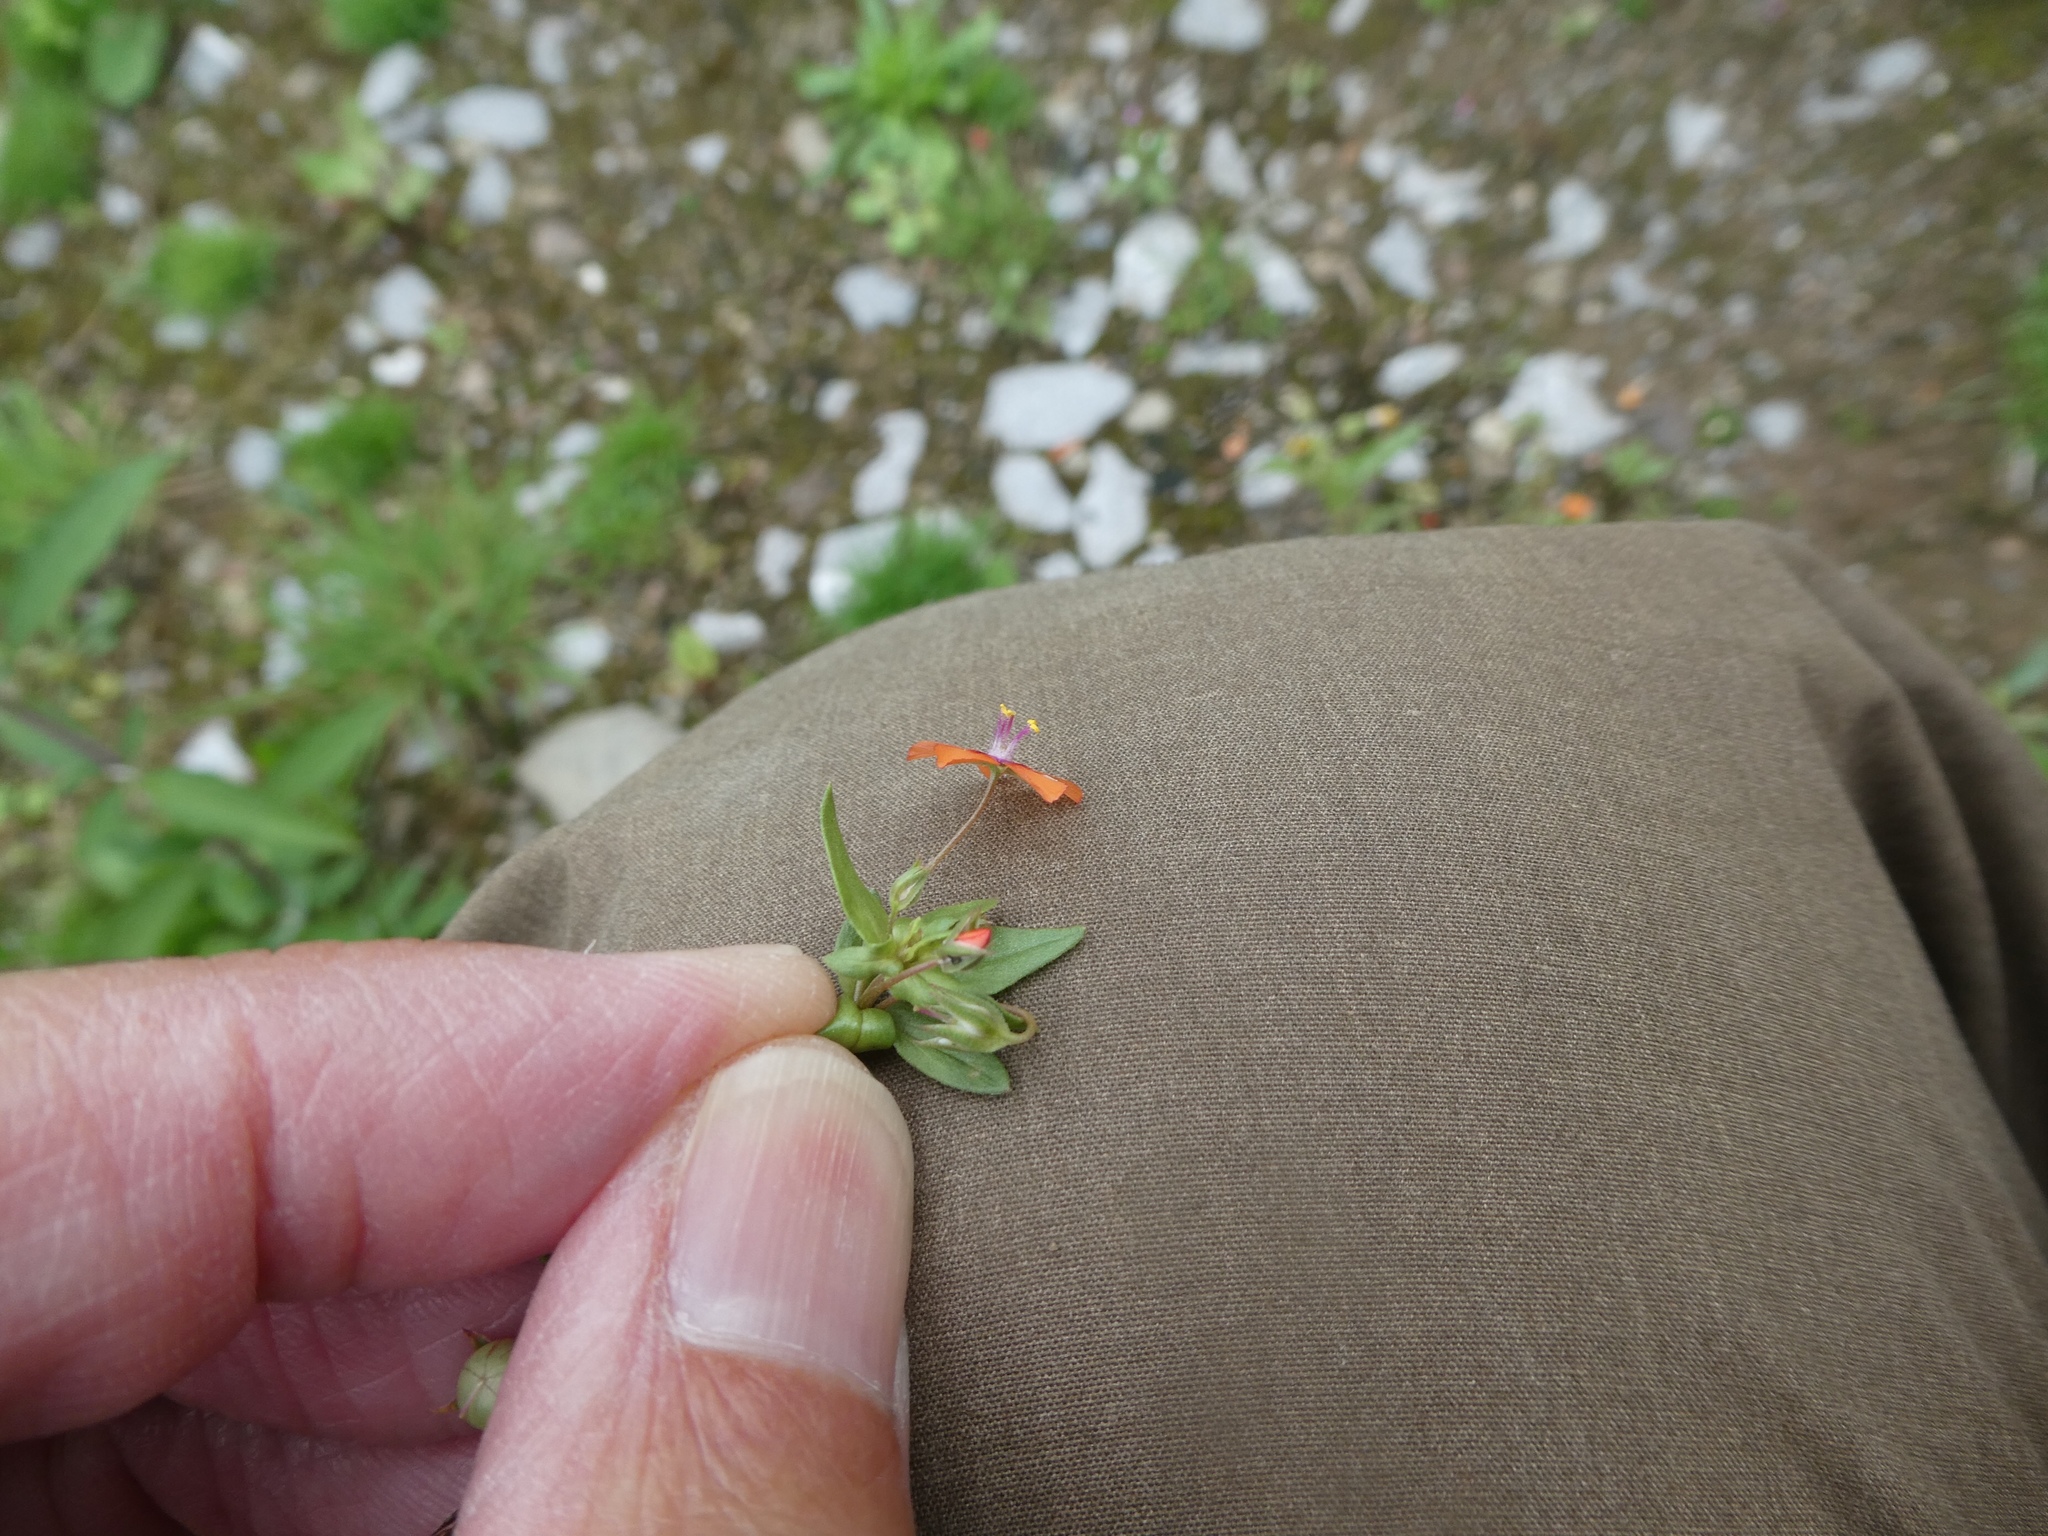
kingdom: Plantae
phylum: Tracheophyta
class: Magnoliopsida
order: Ericales
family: Primulaceae
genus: Lysimachia
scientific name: Lysimachia arvensis
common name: Scarlet pimpernel
